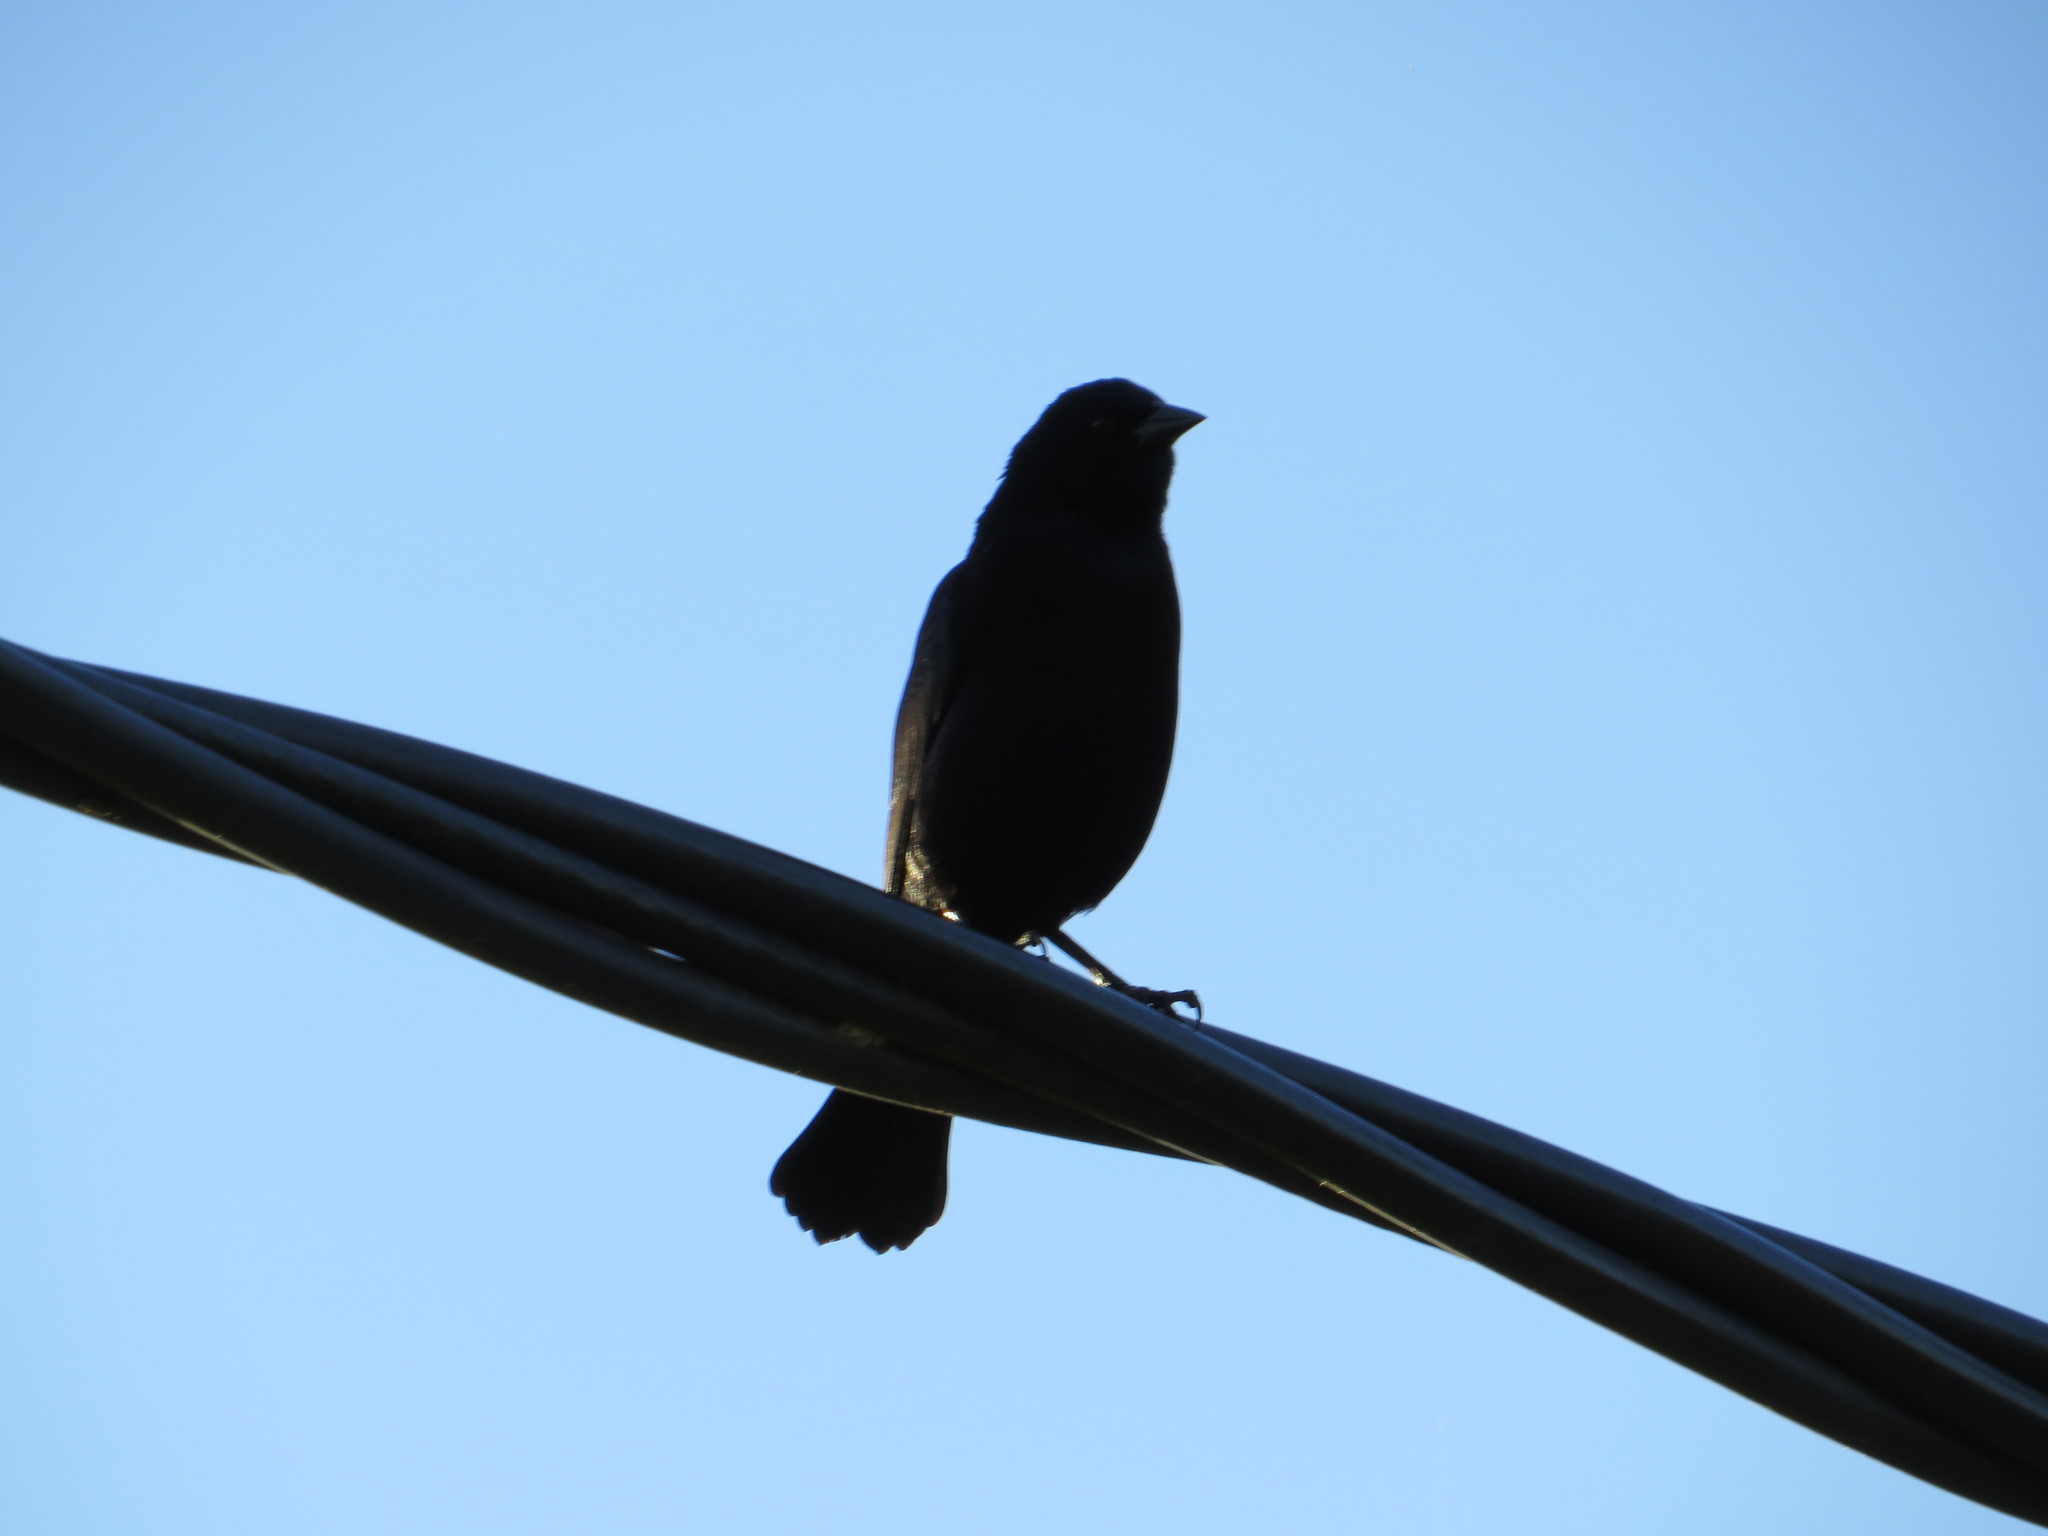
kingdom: Animalia
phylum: Chordata
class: Aves
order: Passeriformes
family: Icteridae
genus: Molothrus
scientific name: Molothrus bonariensis
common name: Shiny cowbird
